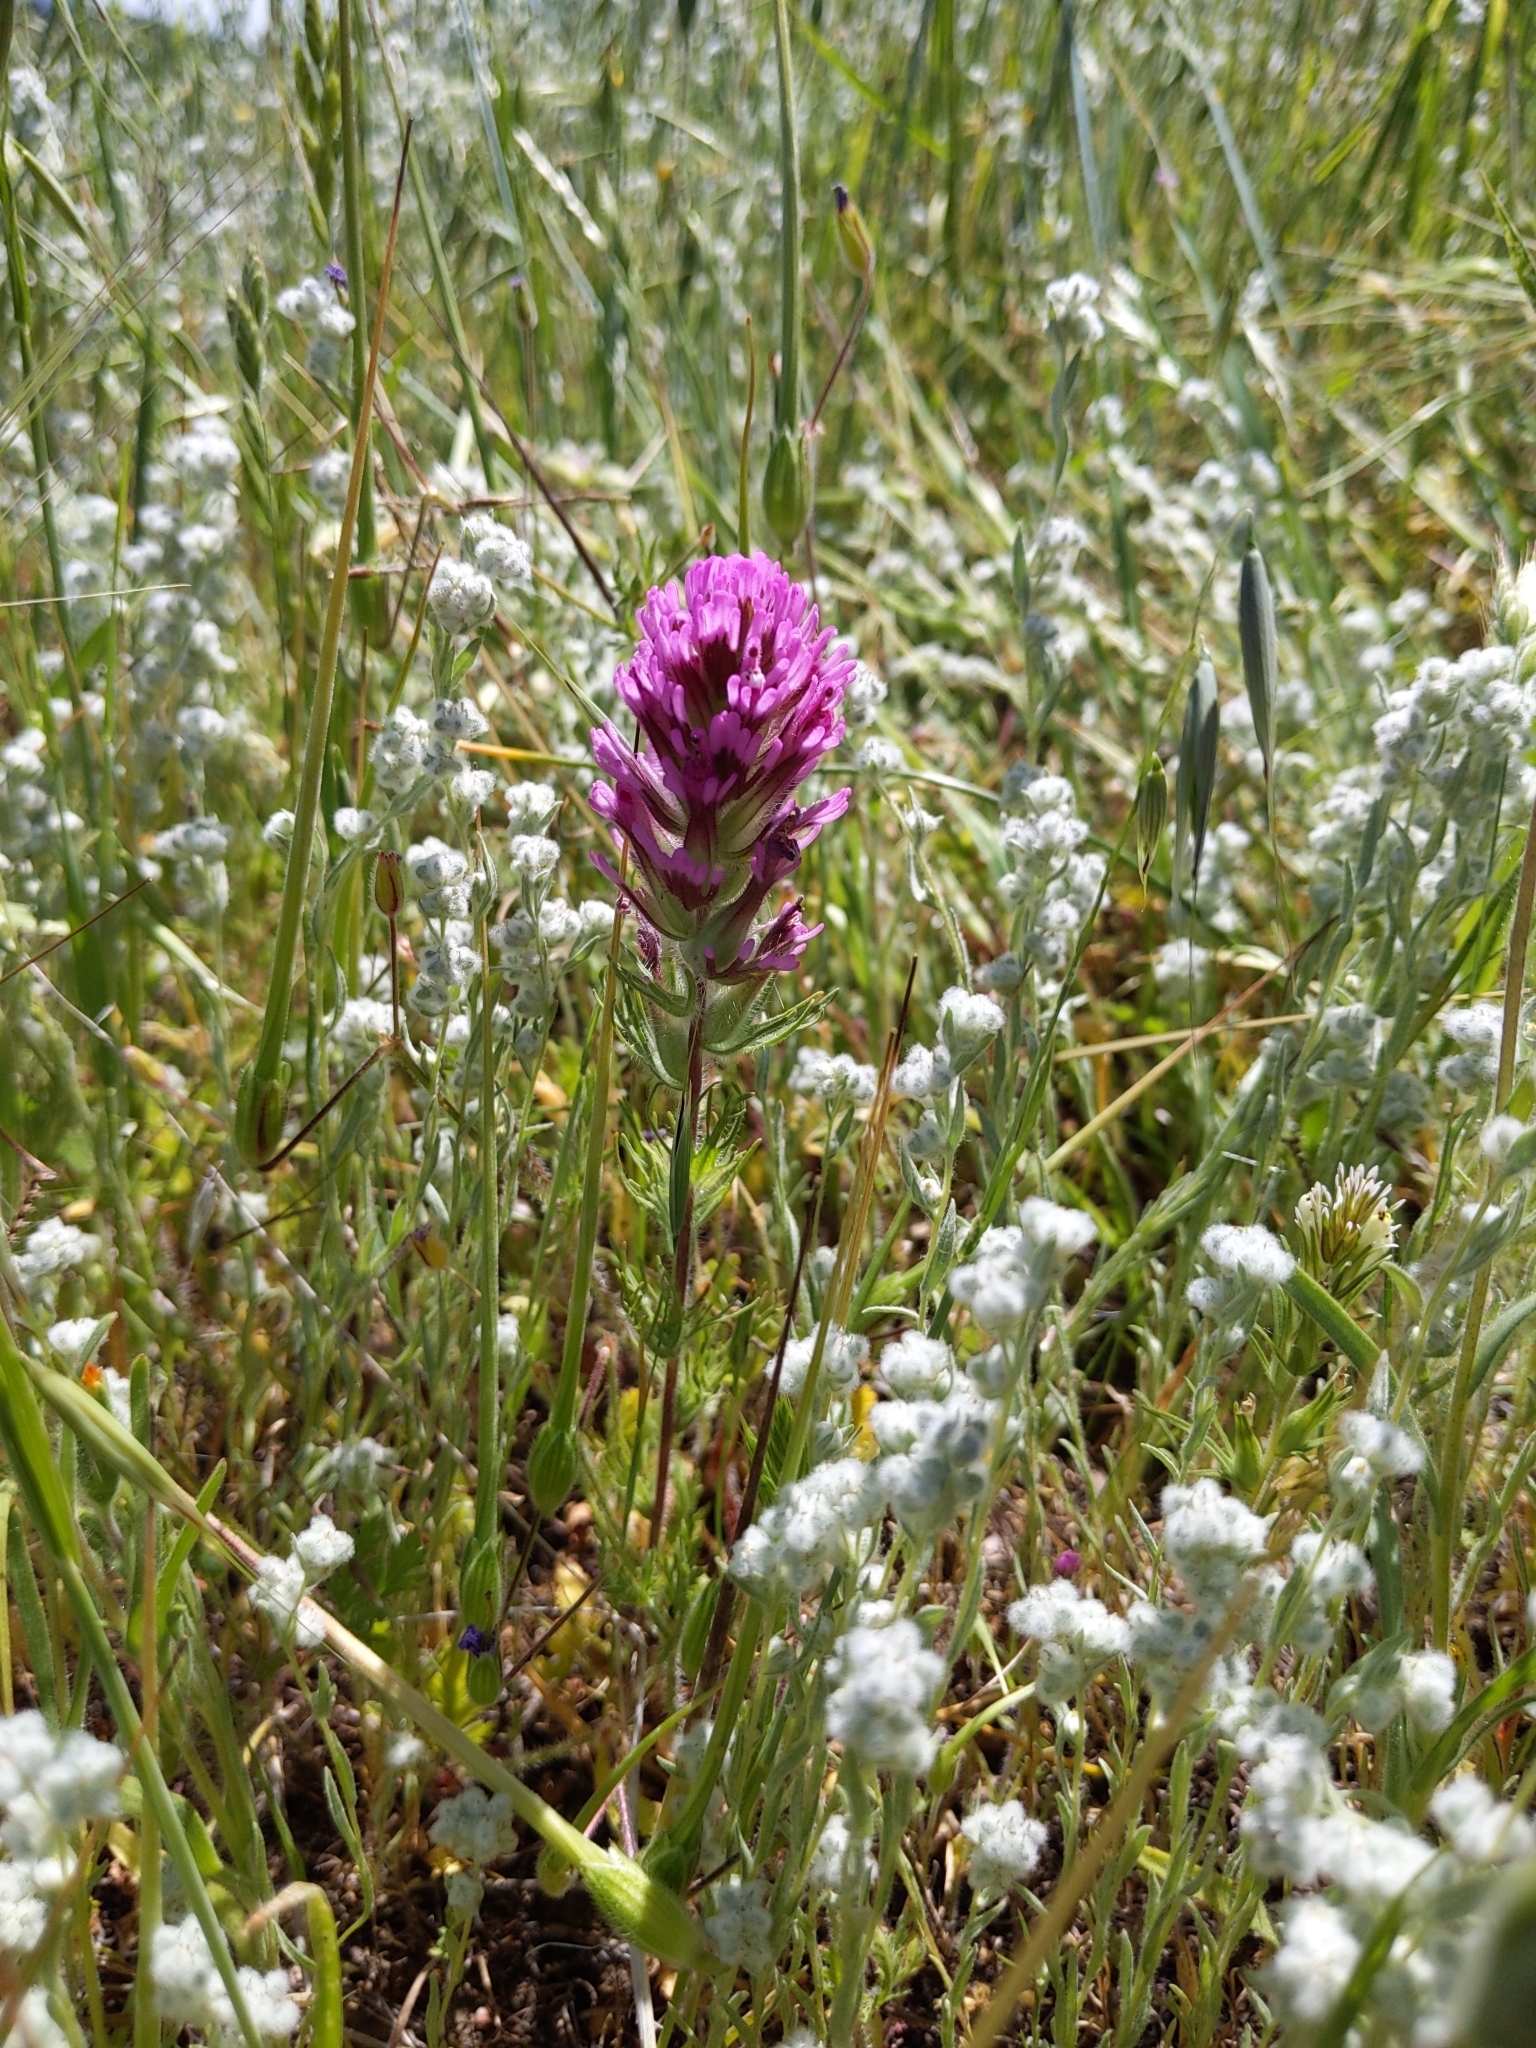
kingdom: Plantae
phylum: Tracheophyta
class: Magnoliopsida
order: Lamiales
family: Orobanchaceae
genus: Castilleja
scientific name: Castilleja exserta
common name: Purple owl-clover
